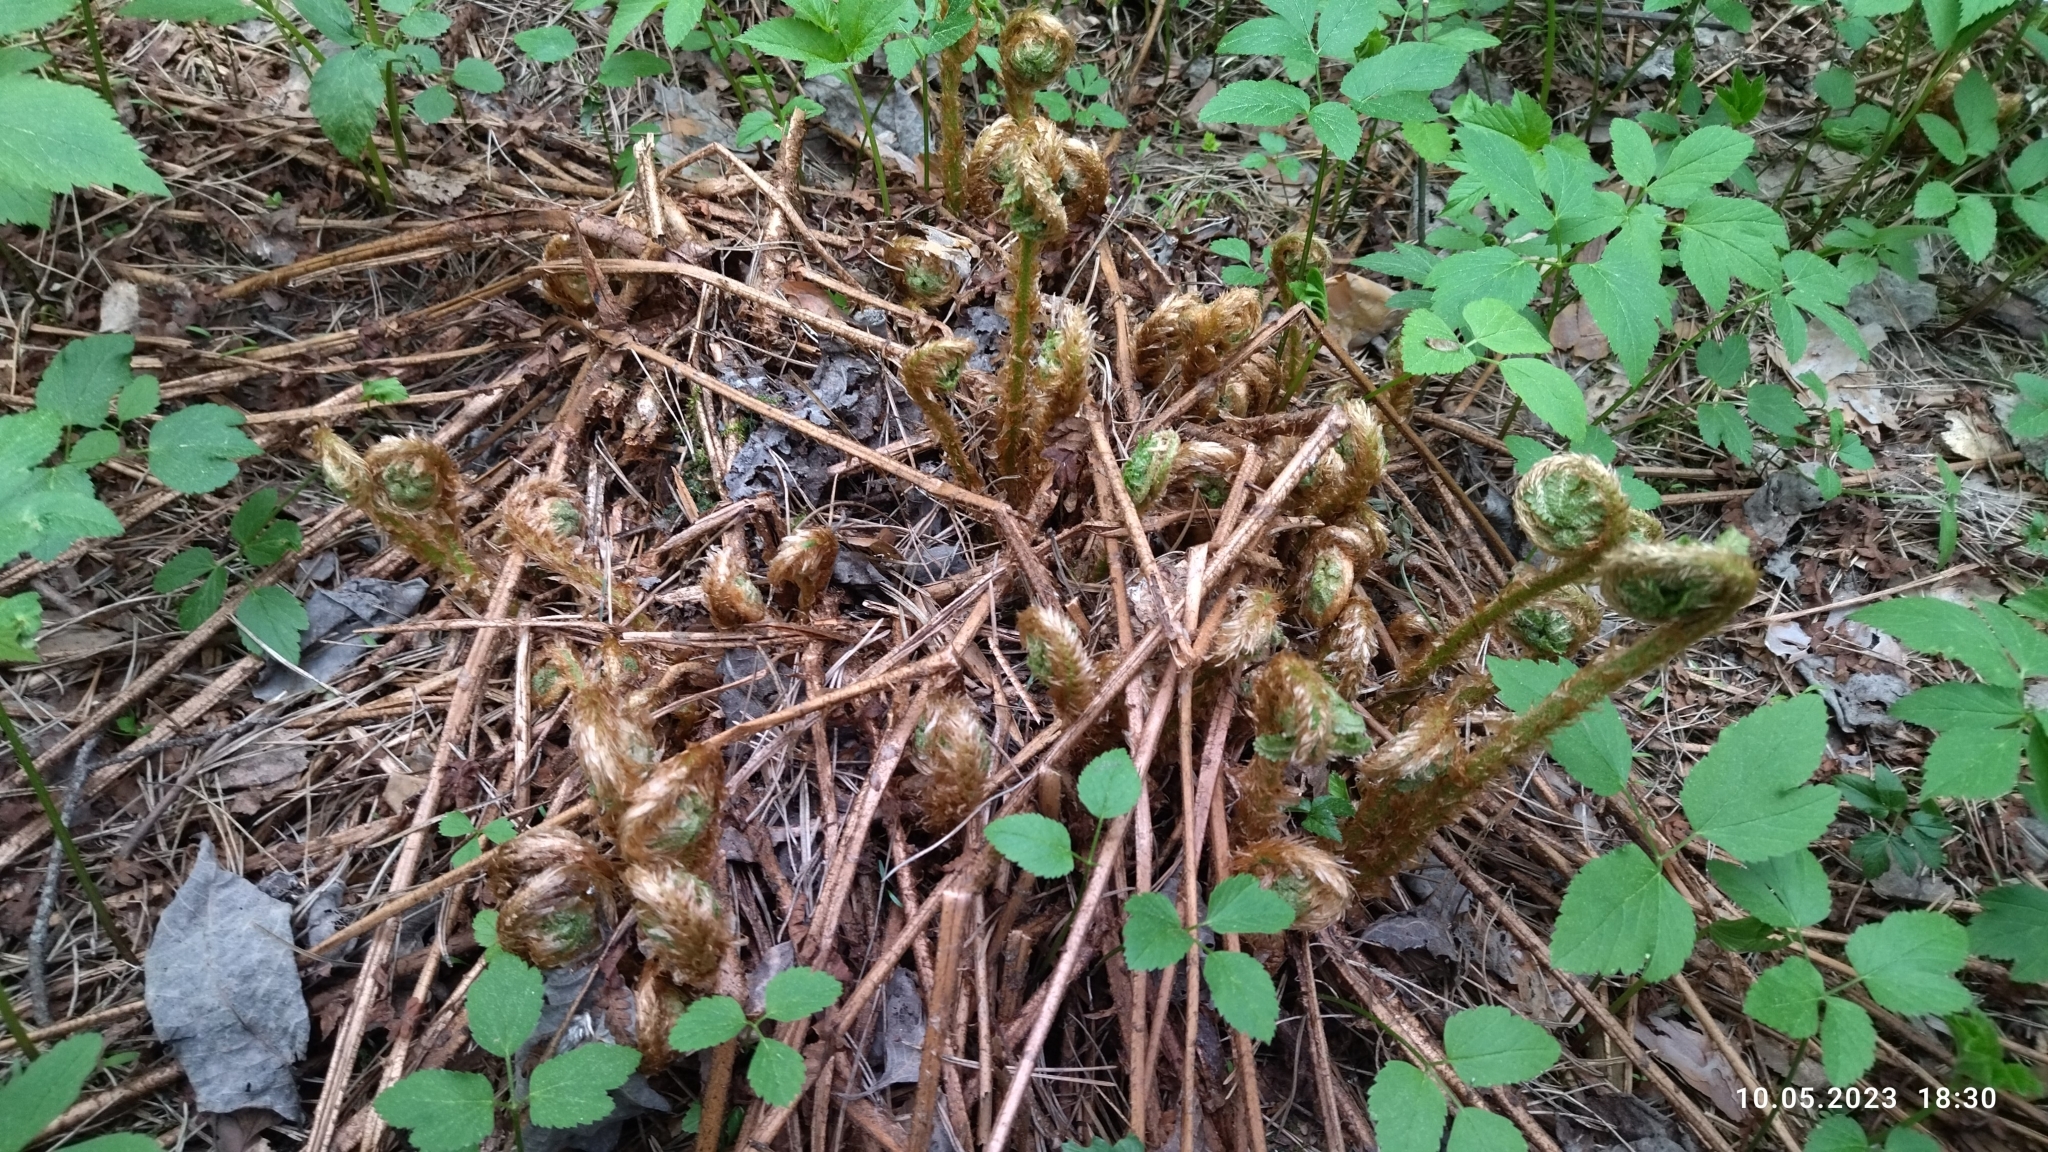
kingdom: Plantae
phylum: Tracheophyta
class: Polypodiopsida
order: Polypodiales
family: Dryopteridaceae
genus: Dryopteris
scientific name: Dryopteris filix-mas
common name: Male fern
